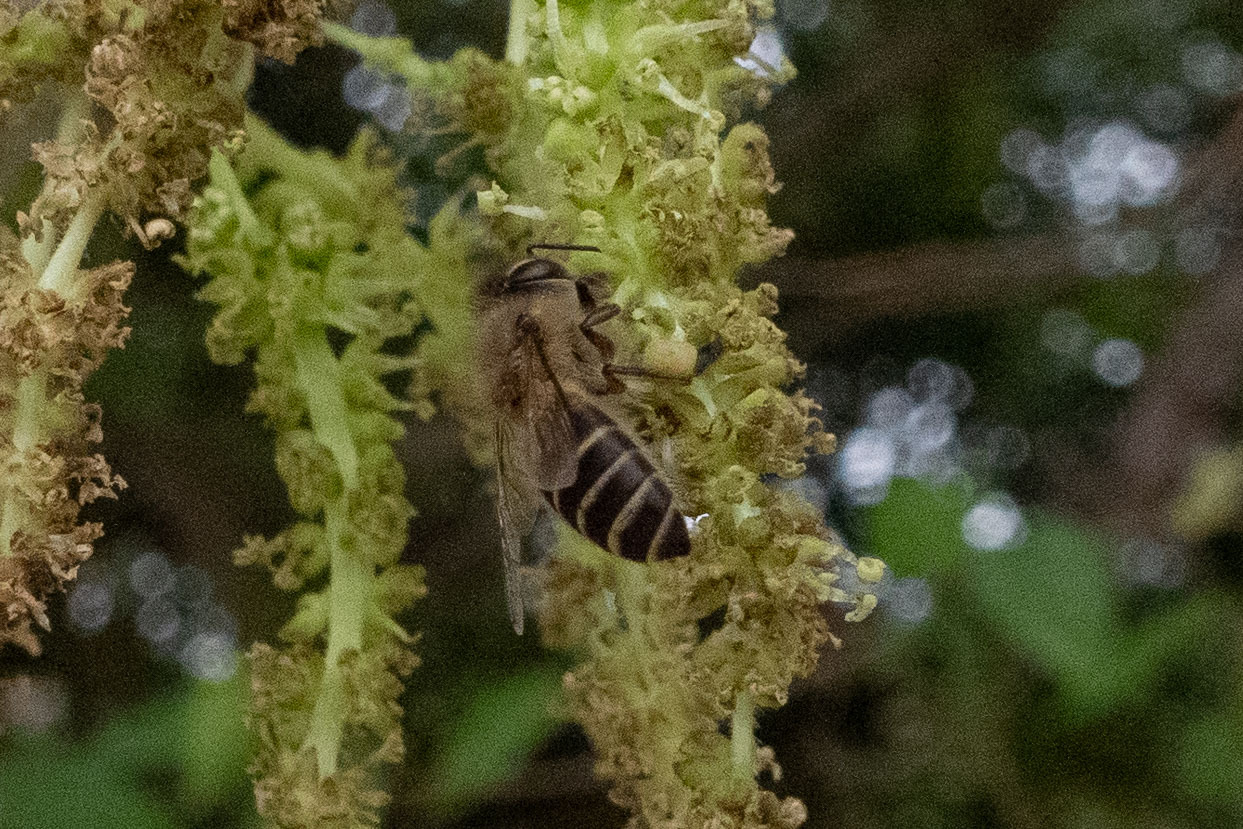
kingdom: Animalia
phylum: Arthropoda
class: Insecta
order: Hymenoptera
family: Apidae
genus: Apis
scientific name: Apis cerana
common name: Honey bee
